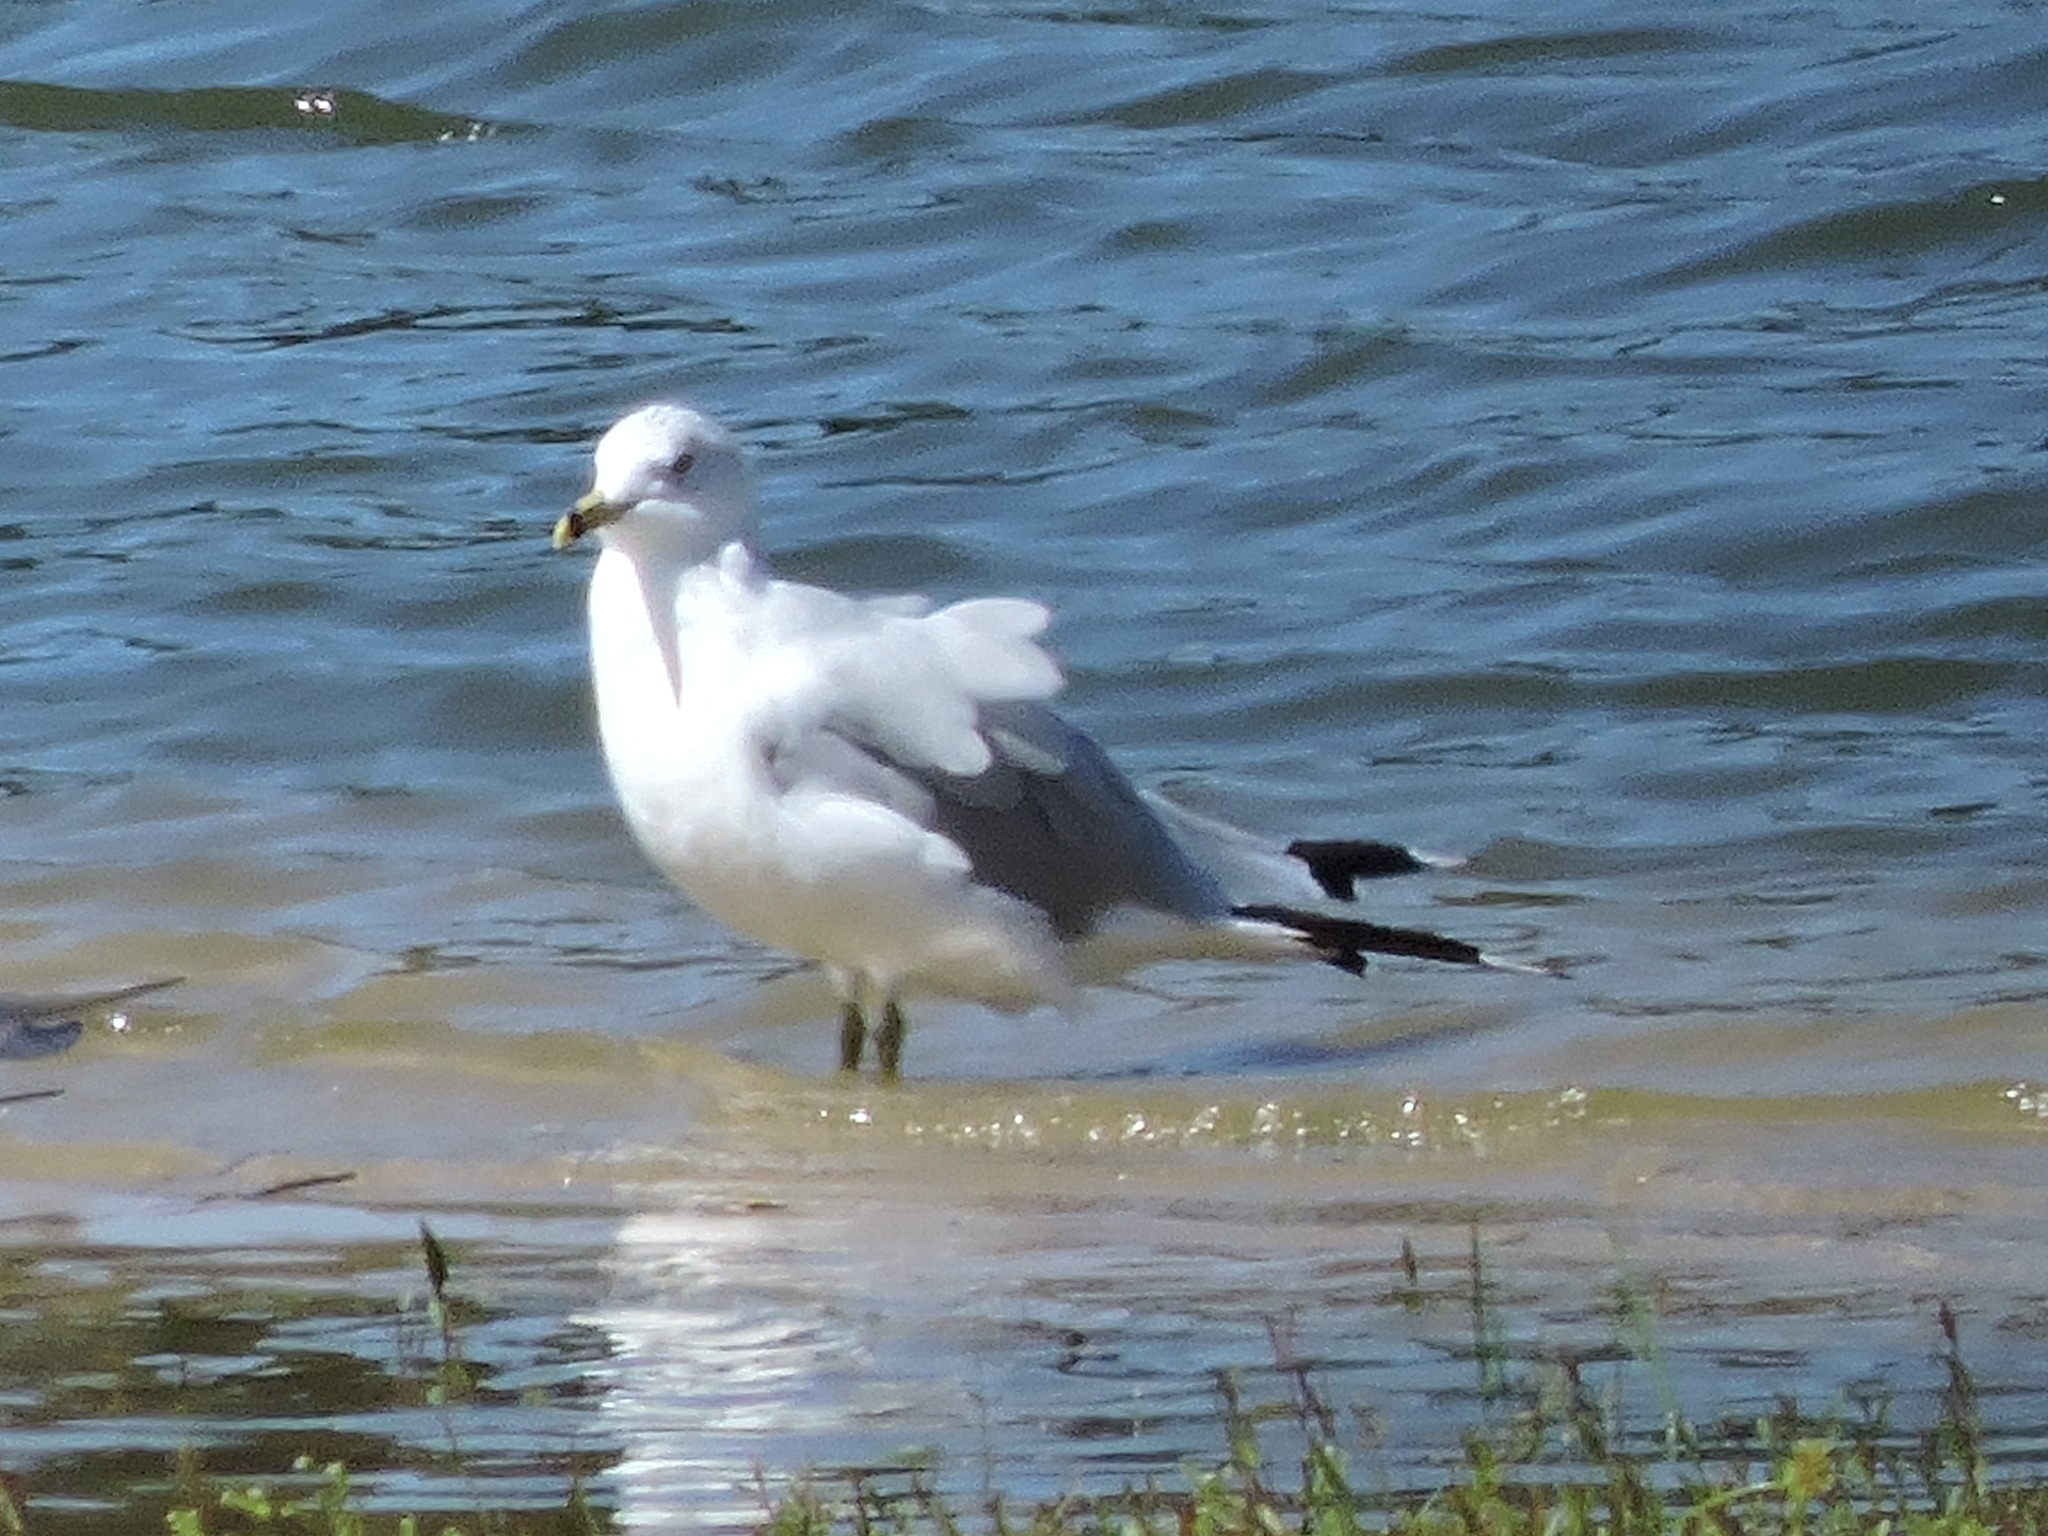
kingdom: Animalia
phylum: Chordata
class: Aves
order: Charadriiformes
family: Laridae
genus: Larus
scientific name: Larus delawarensis
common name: Ring-billed gull
